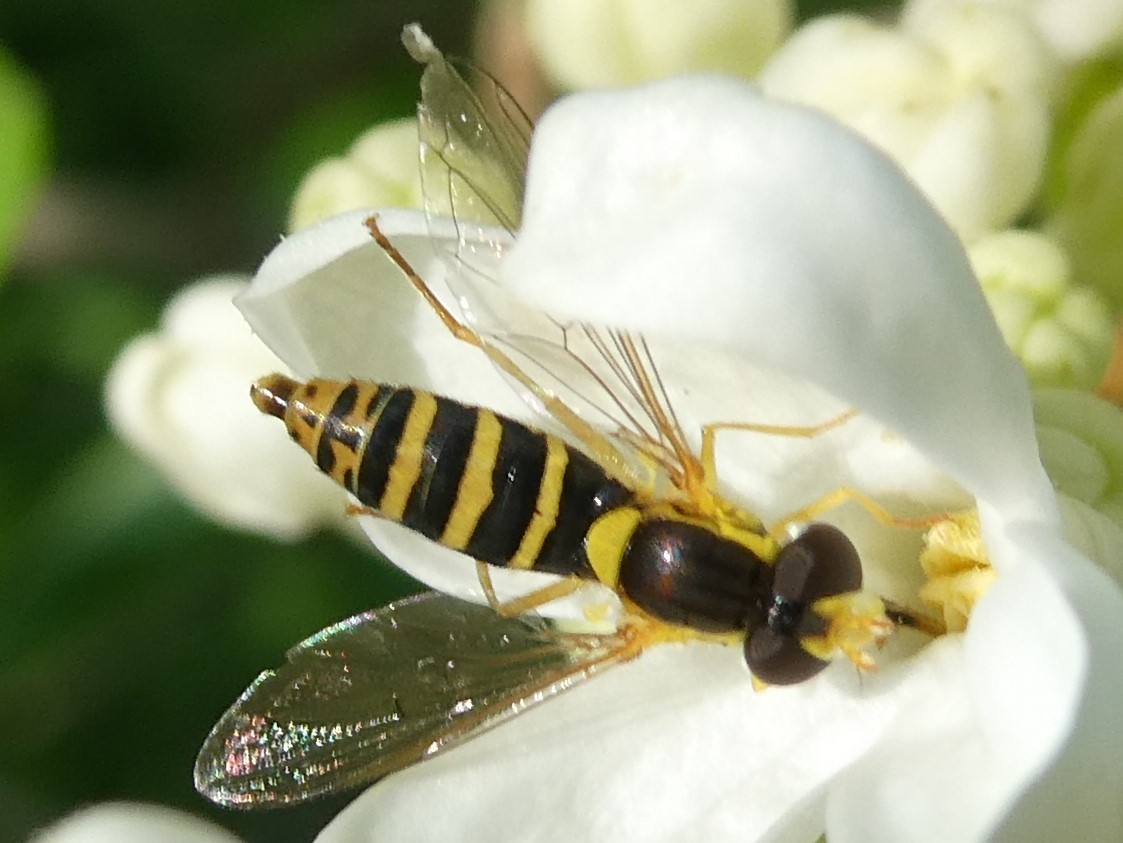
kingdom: Animalia
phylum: Arthropoda
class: Insecta
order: Diptera
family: Syrphidae
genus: Sphaerophoria
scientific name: Sphaerophoria
